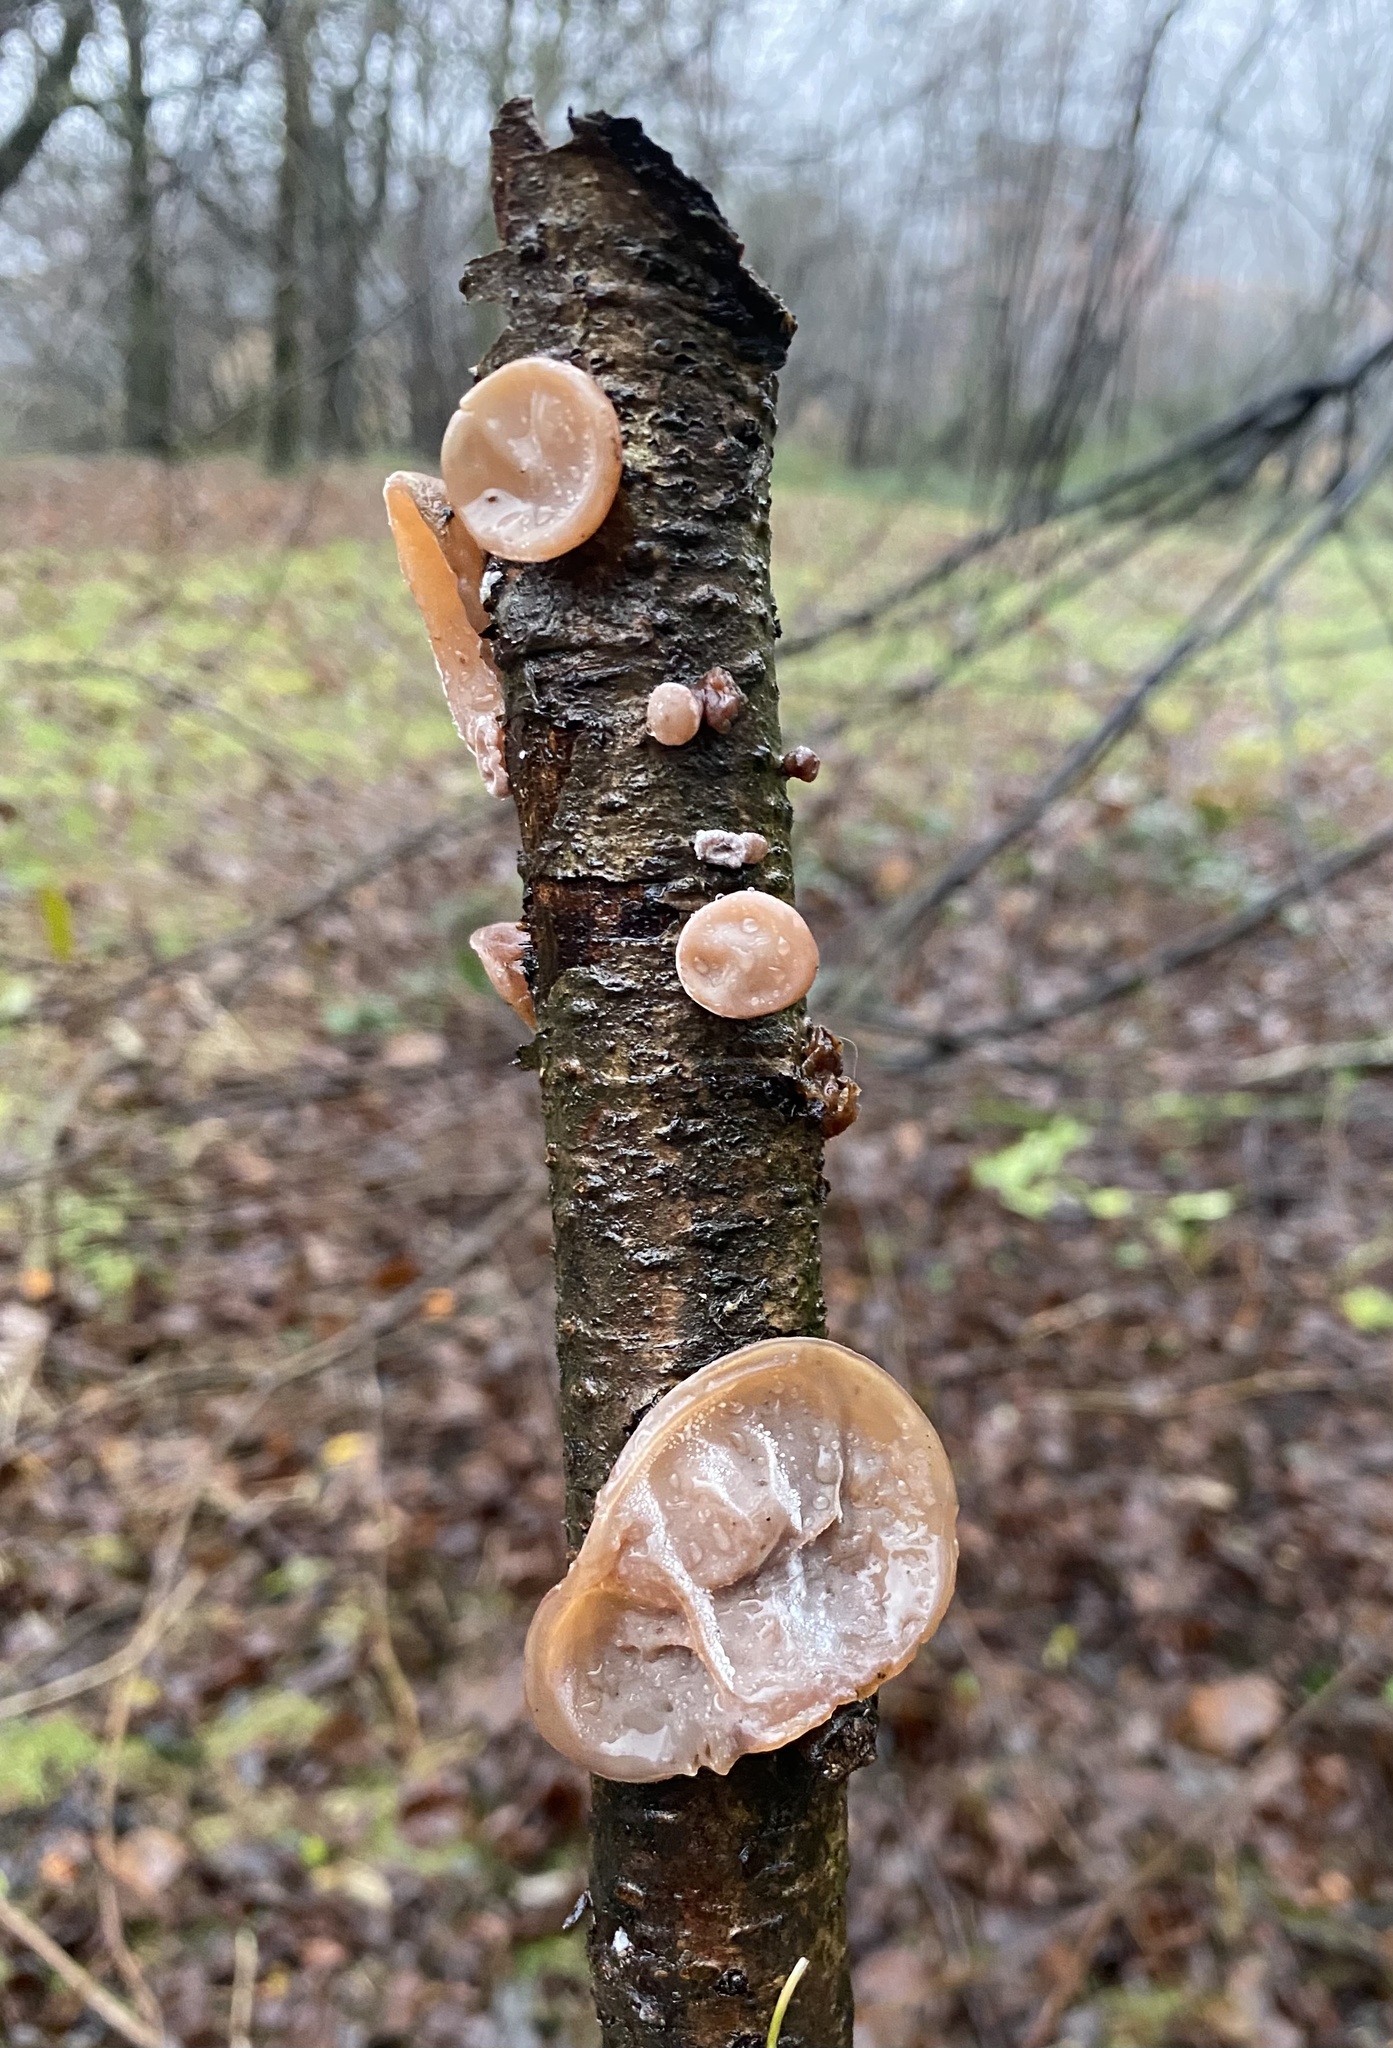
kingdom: Fungi
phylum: Basidiomycota
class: Agaricomycetes
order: Auriculariales
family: Auriculariaceae
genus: Auricularia
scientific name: Auricularia auricula-judae
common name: Jelly ear
